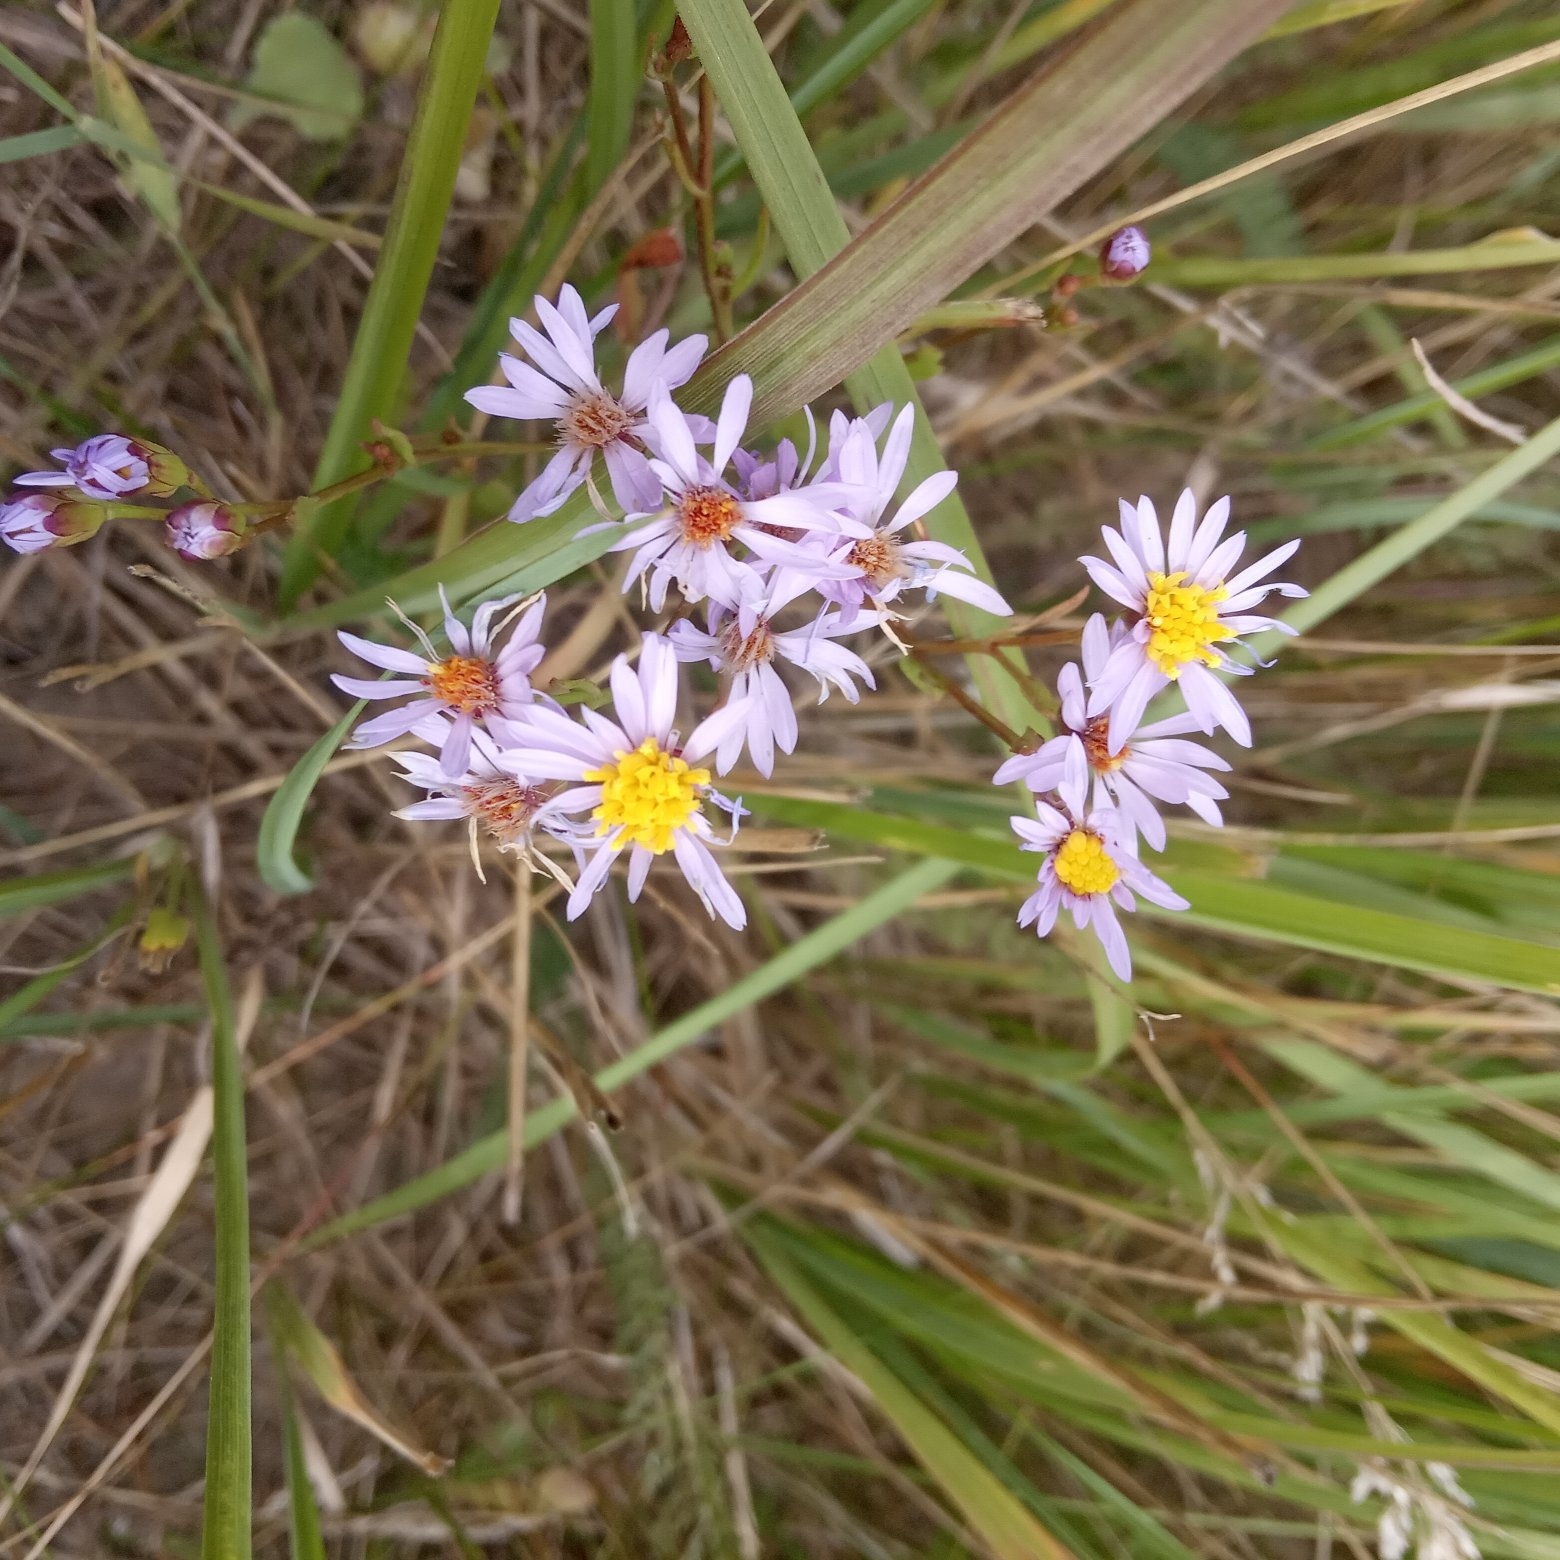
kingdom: Plantae
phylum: Tracheophyta
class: Magnoliopsida
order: Asterales
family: Asteraceae
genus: Tripolium
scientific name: Tripolium pannonicum
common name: Sea aster
